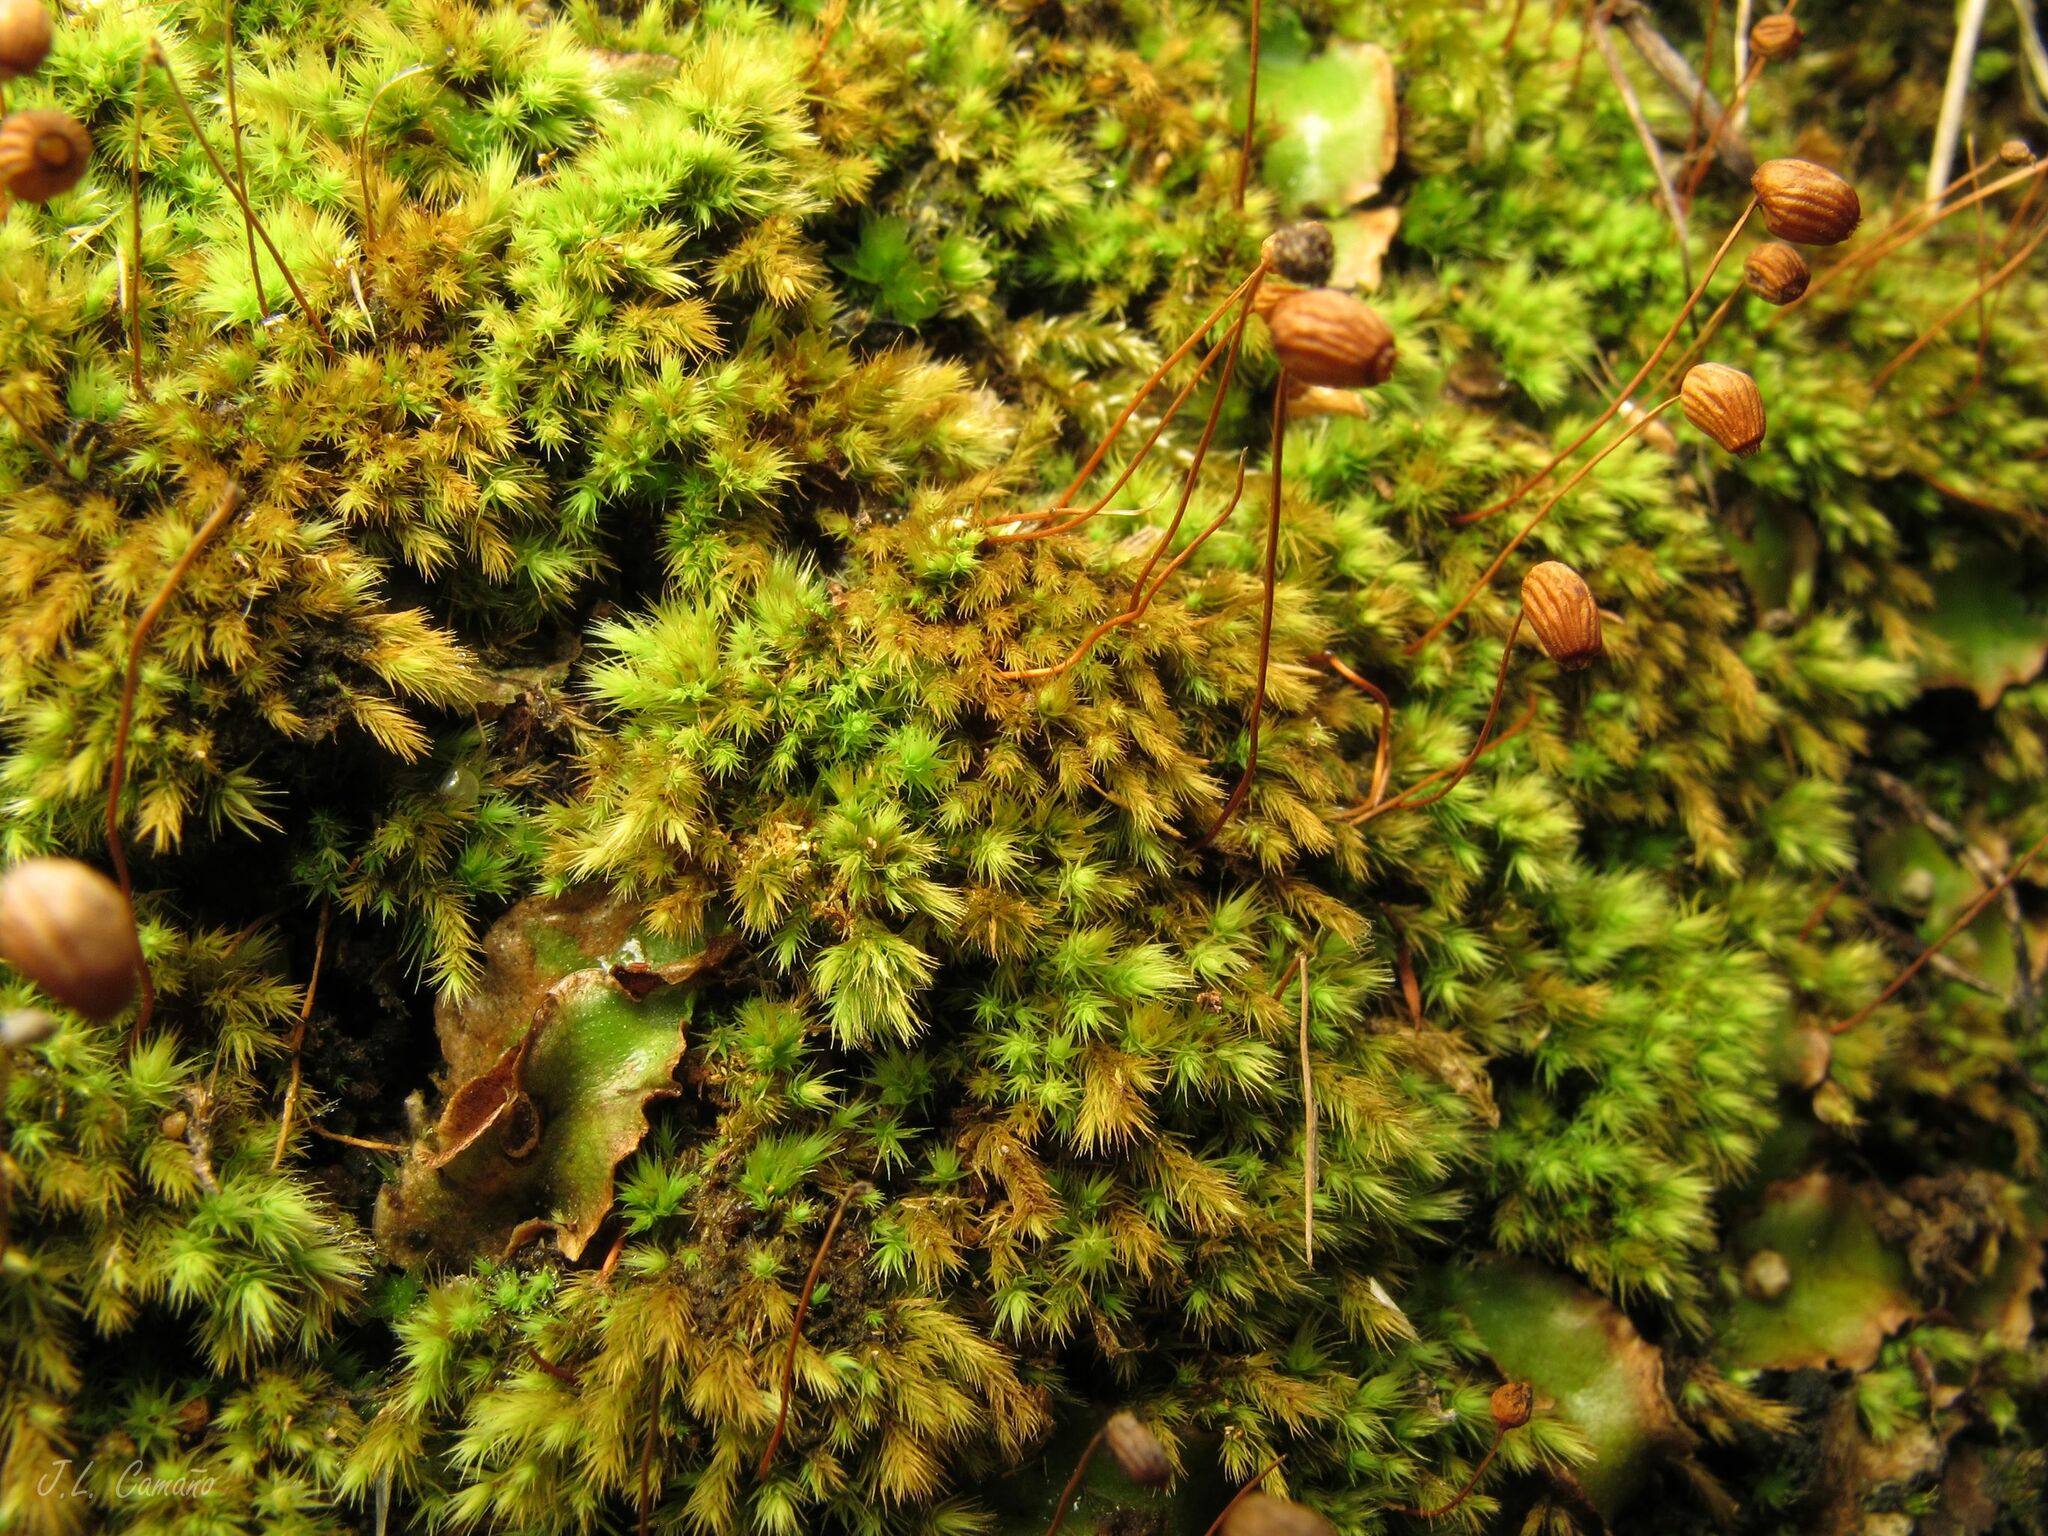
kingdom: Plantae
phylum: Bryophyta
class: Bryopsida
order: Bartramiales
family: Bartramiaceae
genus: Bartramia
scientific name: Bartramia aprica
